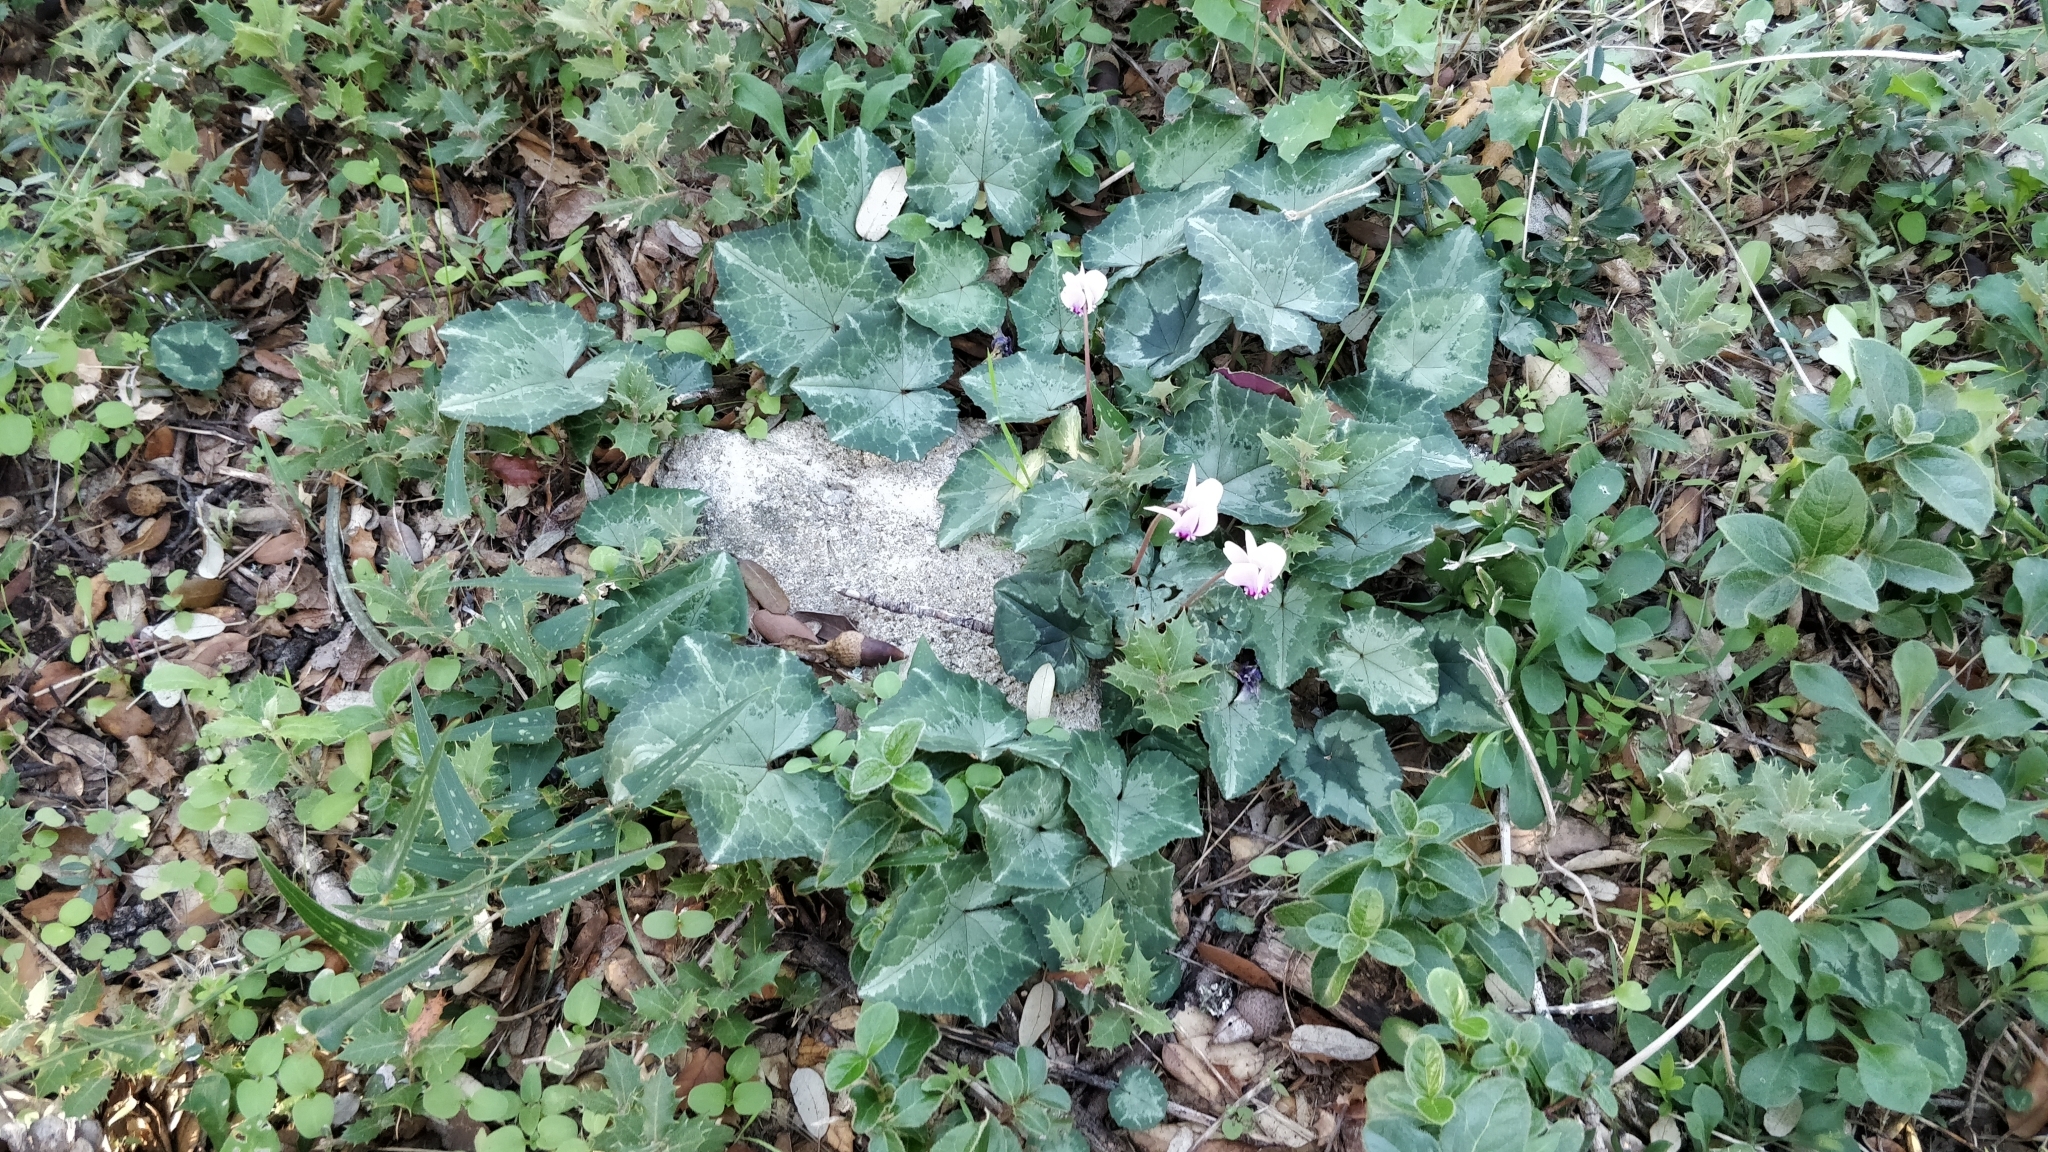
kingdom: Plantae
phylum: Tracheophyta
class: Magnoliopsida
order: Ericales
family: Primulaceae
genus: Cyclamen
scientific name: Cyclamen hederifolium
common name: Sowbread
